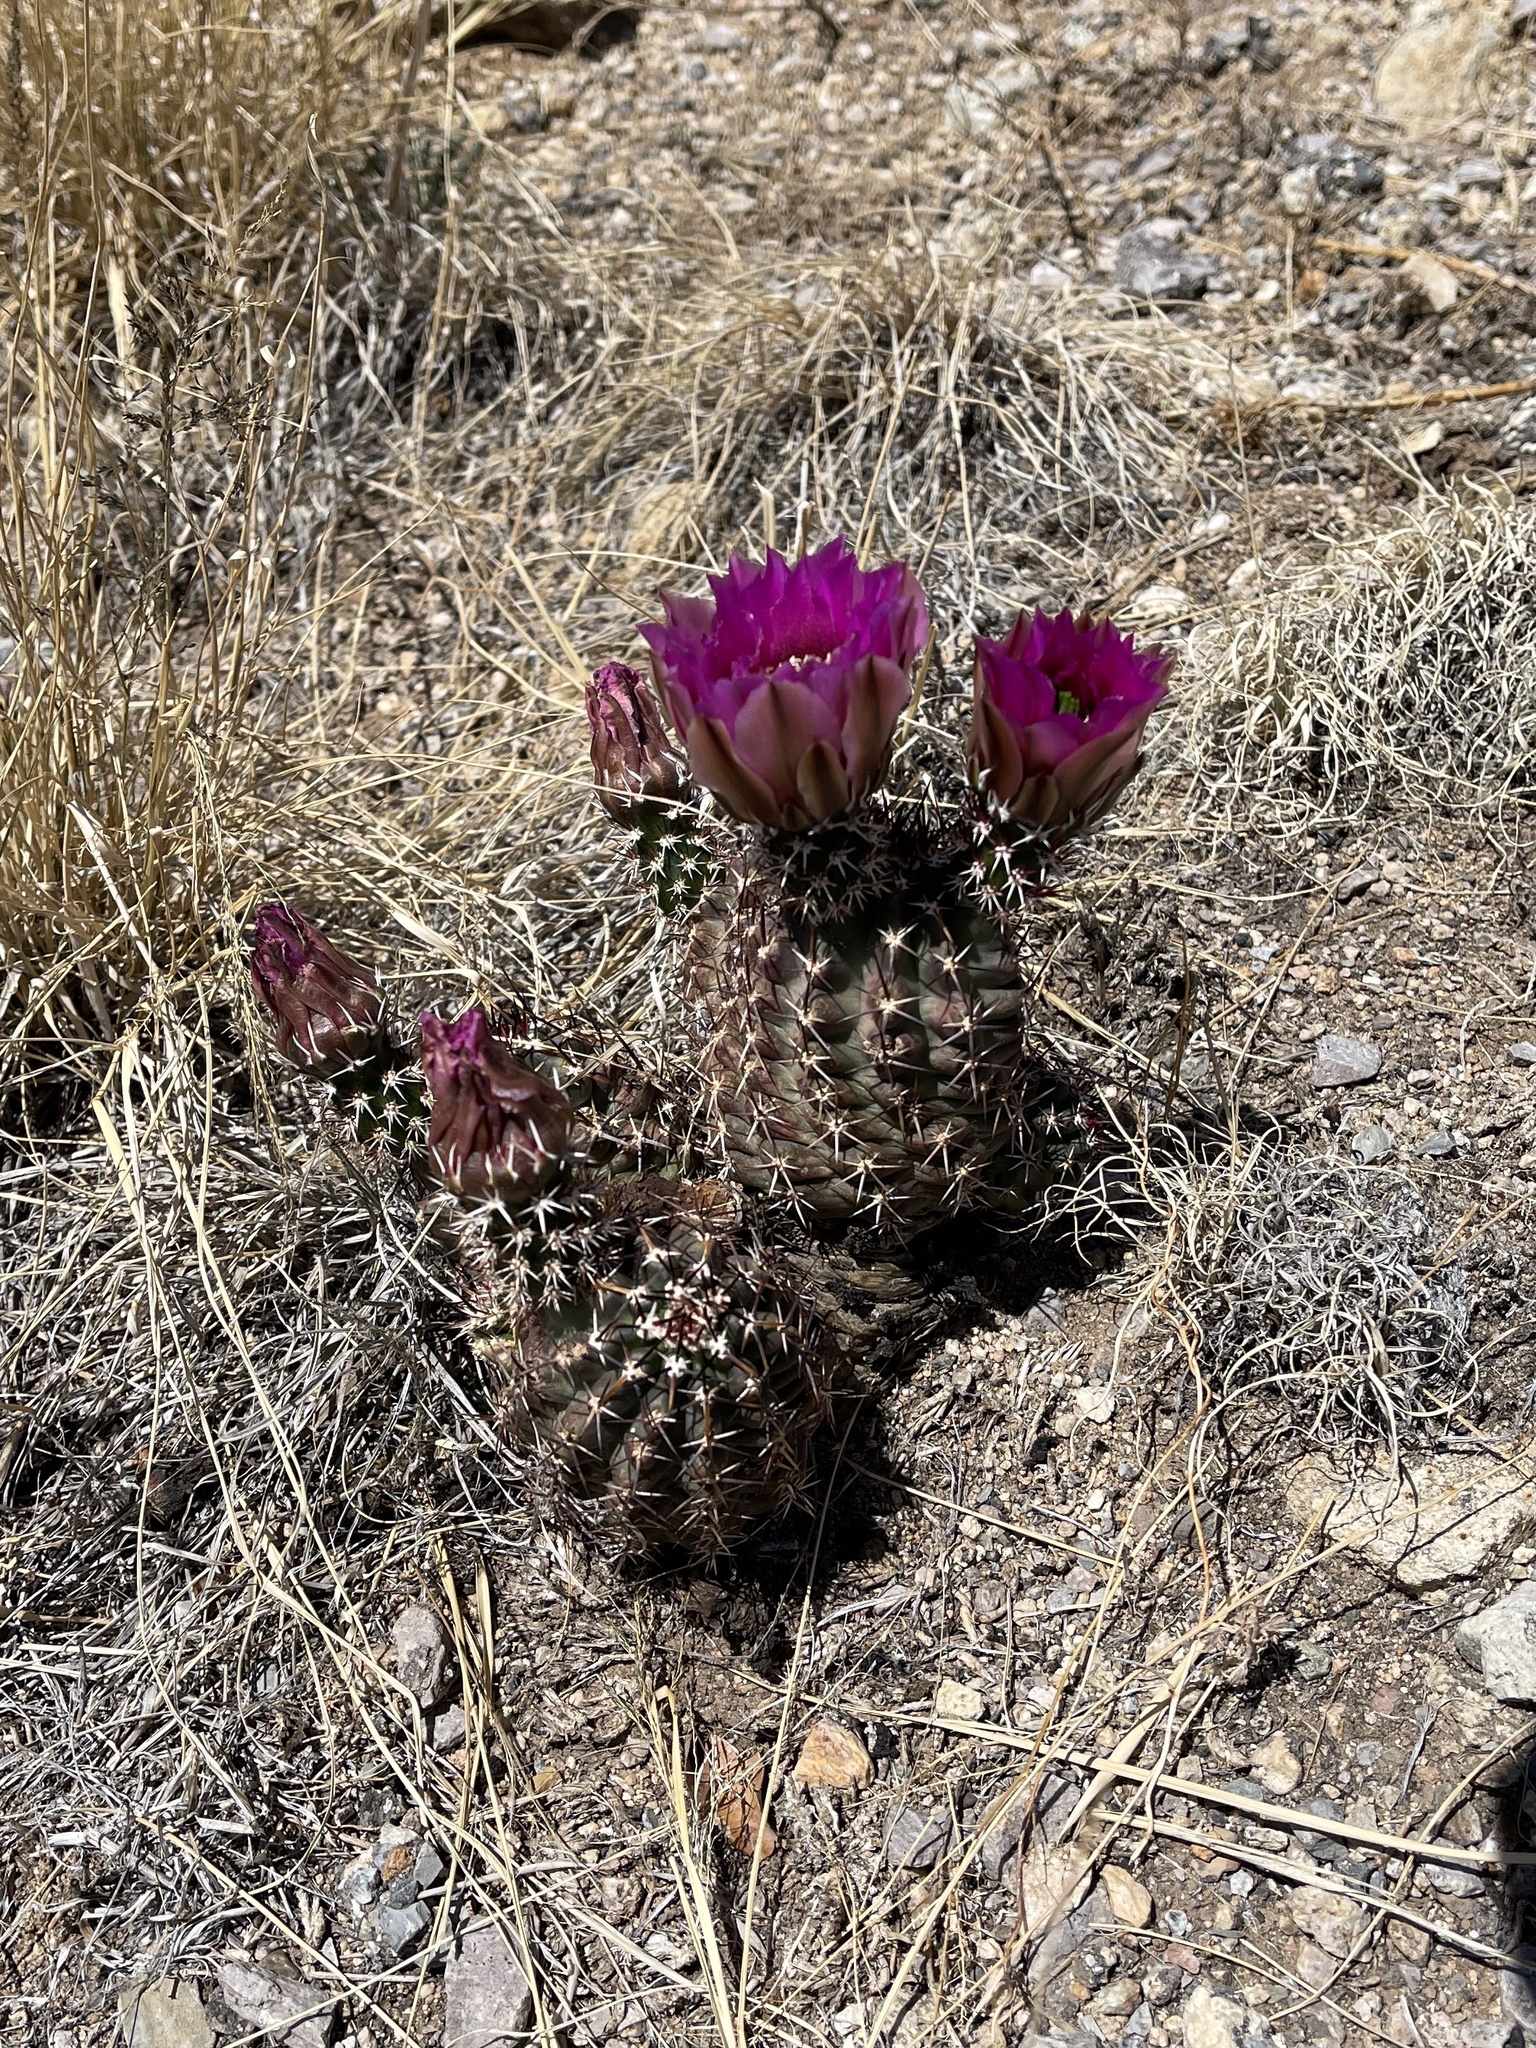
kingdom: Plantae
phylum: Tracheophyta
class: Magnoliopsida
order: Caryophyllales
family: Cactaceae
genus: Echinocereus
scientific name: Echinocereus fendleri
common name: Fendler's hedgehog cactus
